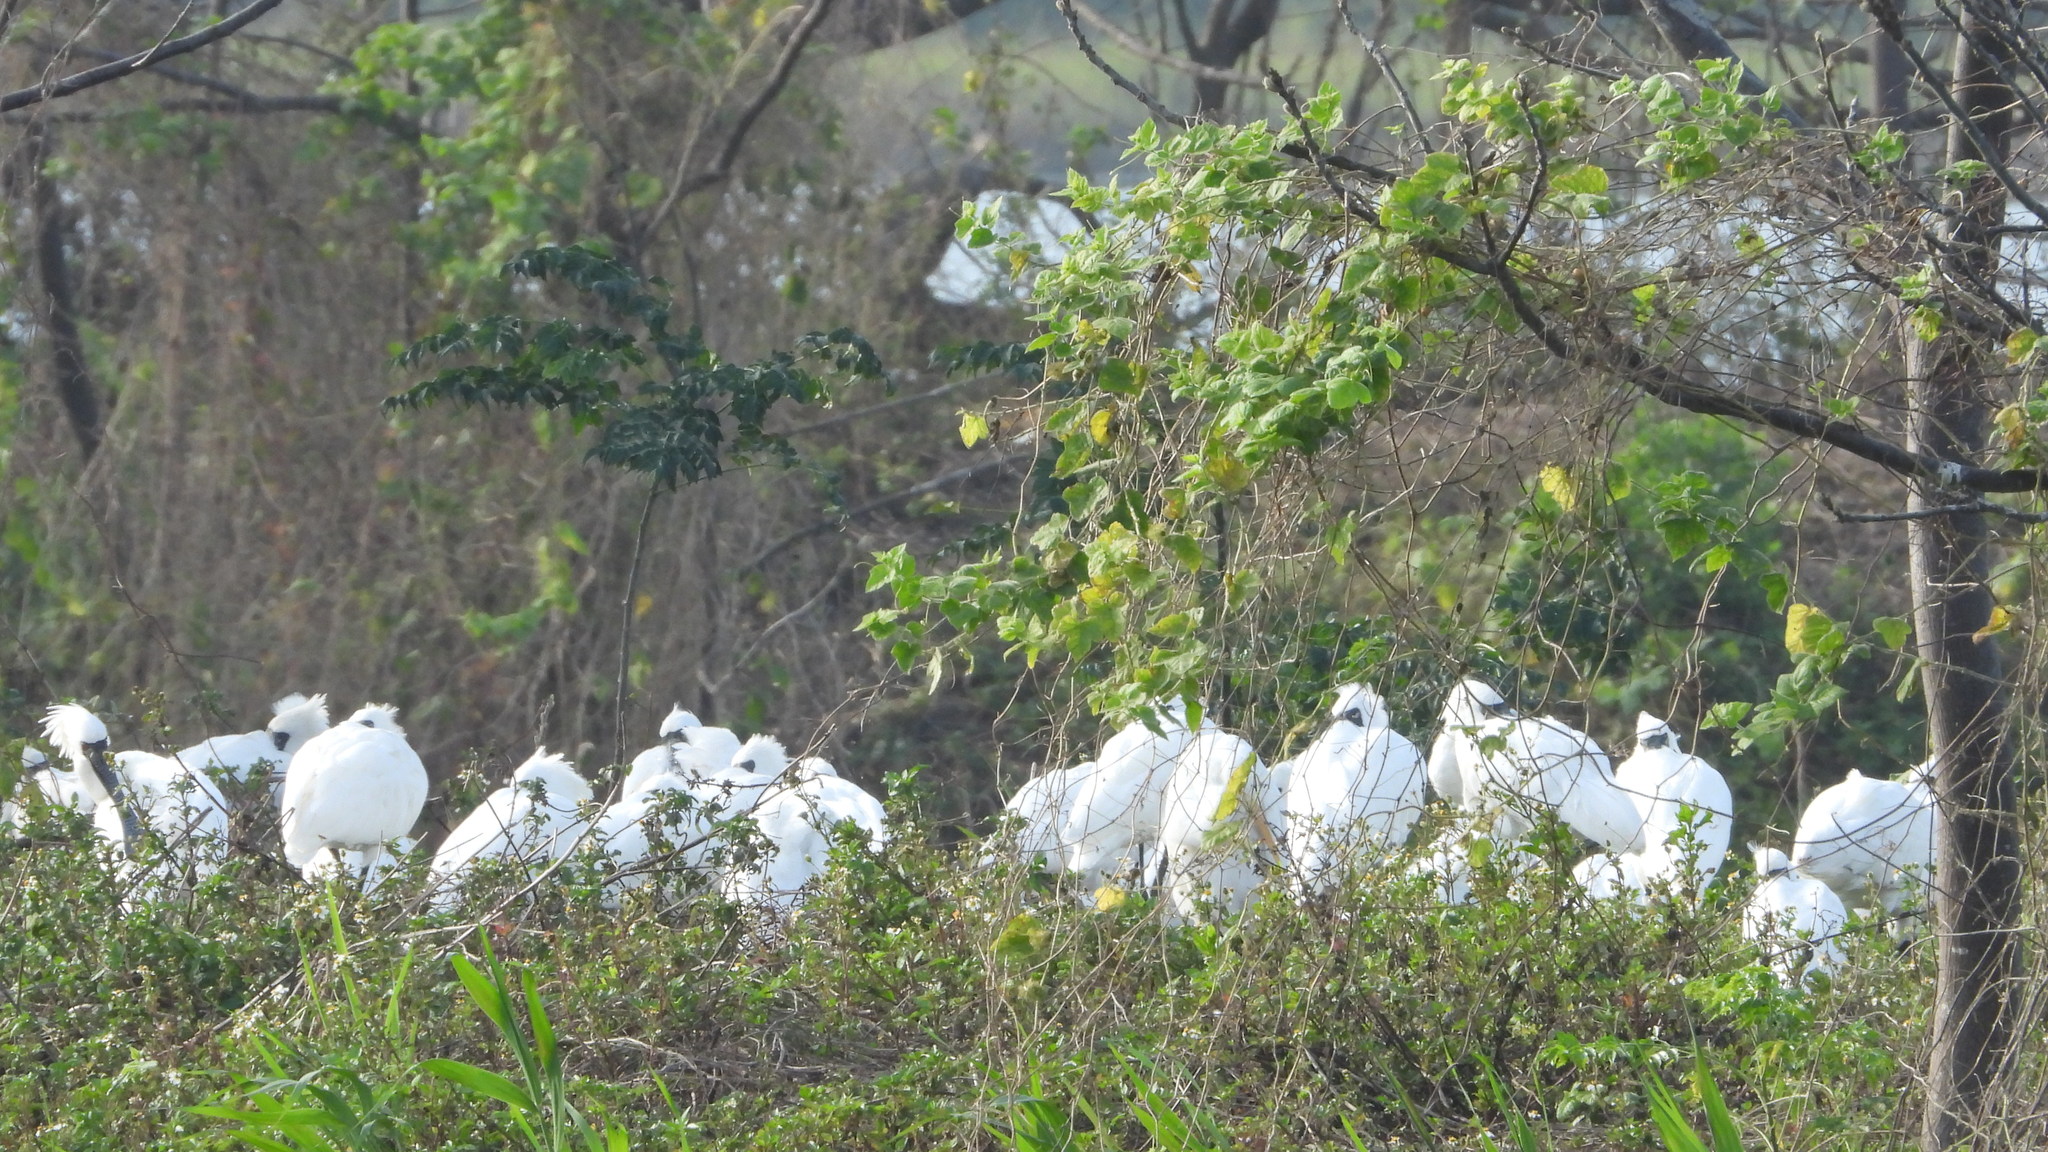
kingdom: Animalia
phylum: Chordata
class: Aves
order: Pelecaniformes
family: Threskiornithidae
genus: Platalea
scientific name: Platalea minor
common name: Black-faced spoonbill
